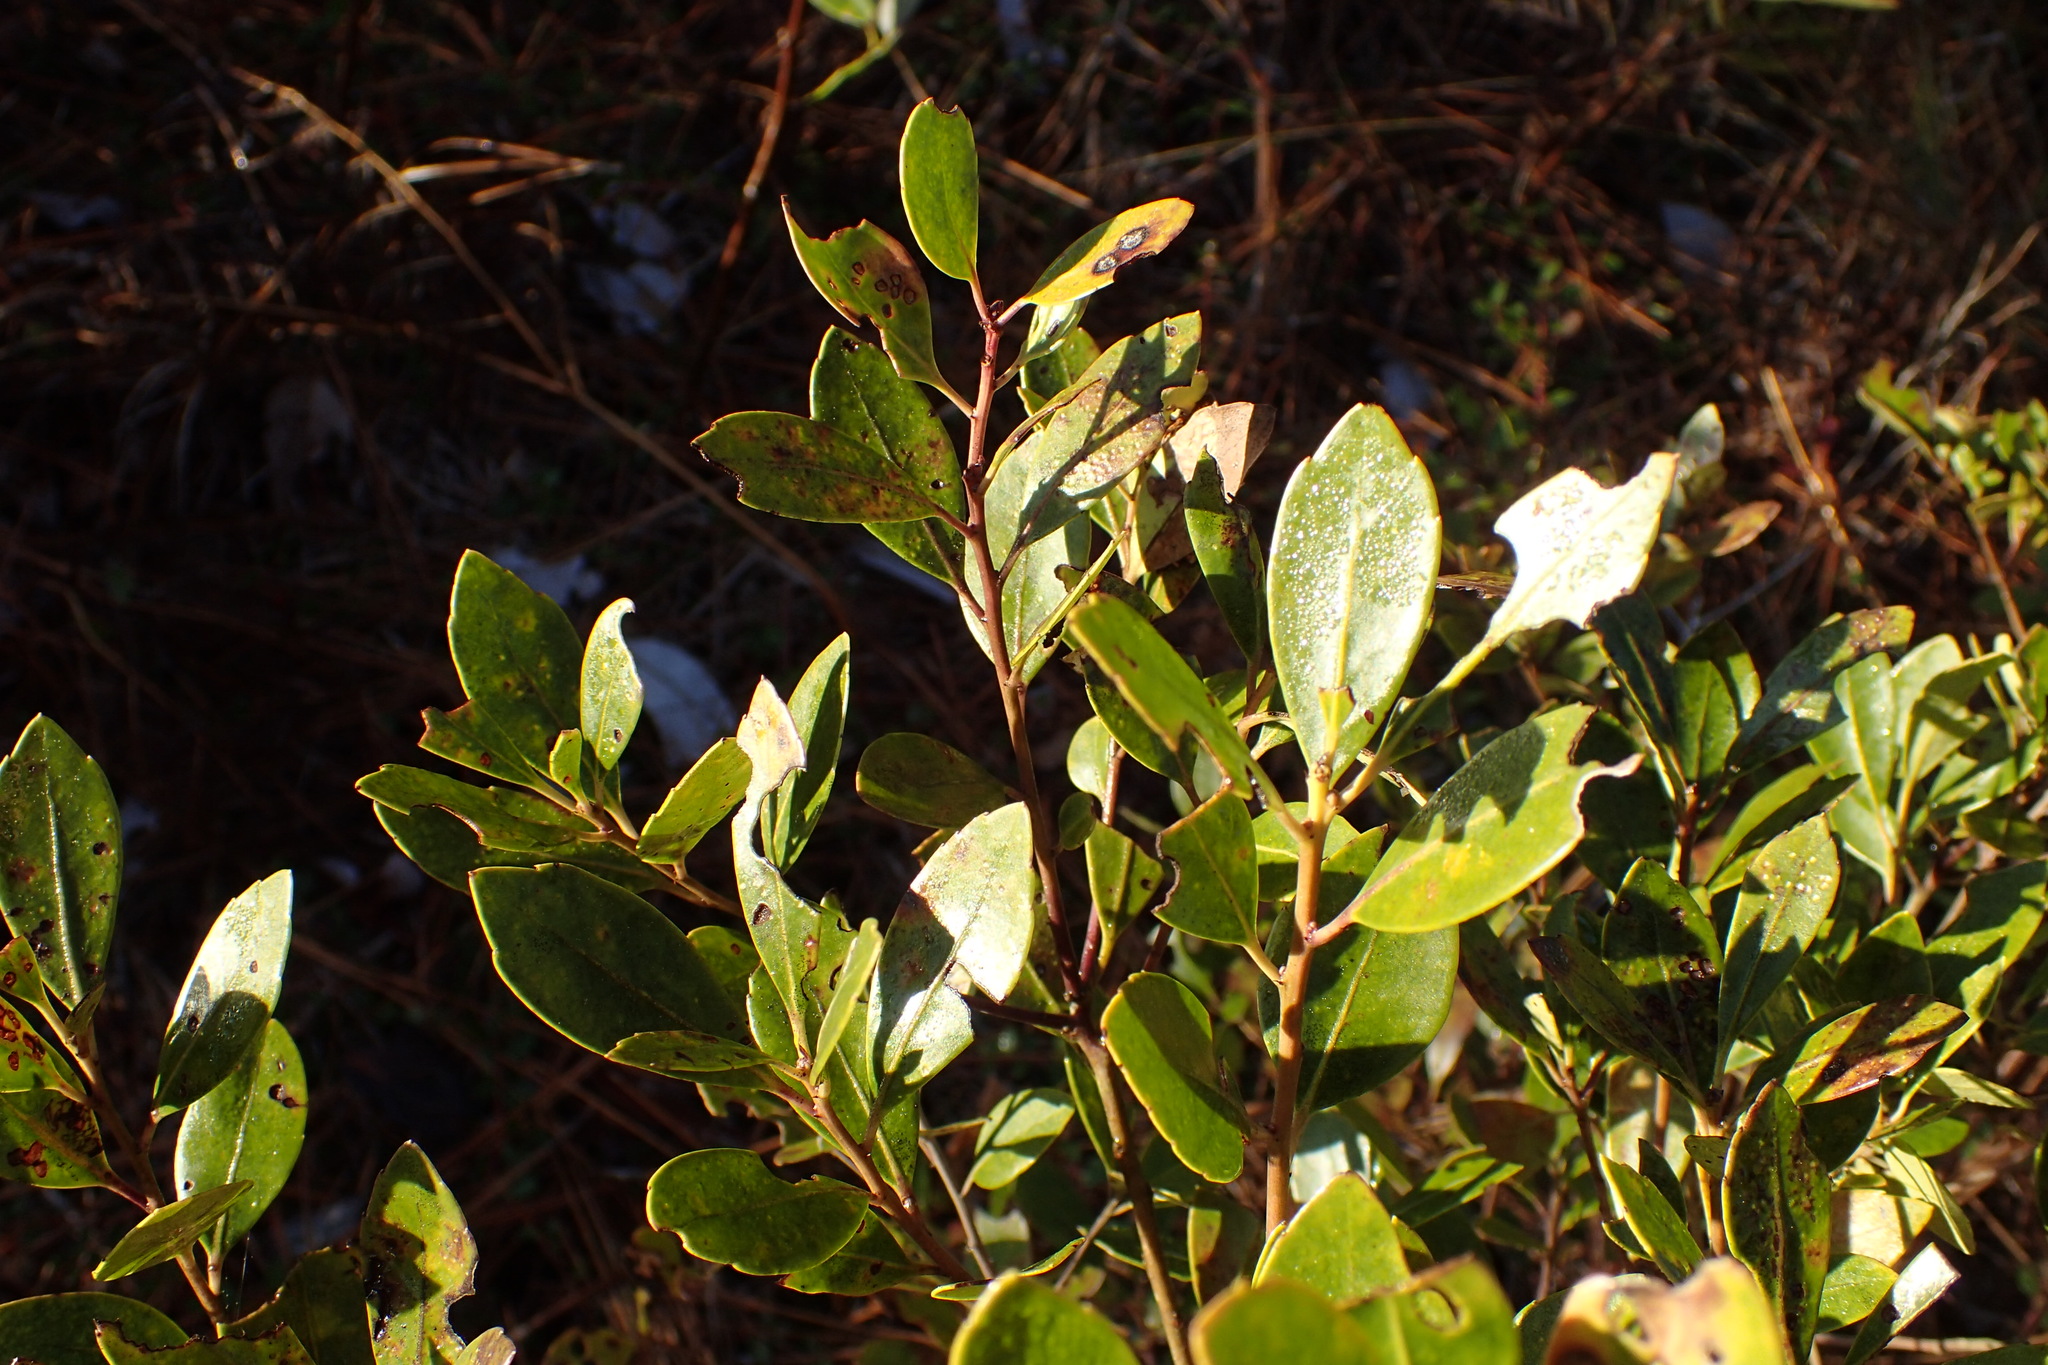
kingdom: Plantae
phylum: Tracheophyta
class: Magnoliopsida
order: Aquifoliales
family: Aquifoliaceae
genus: Ilex
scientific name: Ilex glabra
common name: Bitter gallberry
